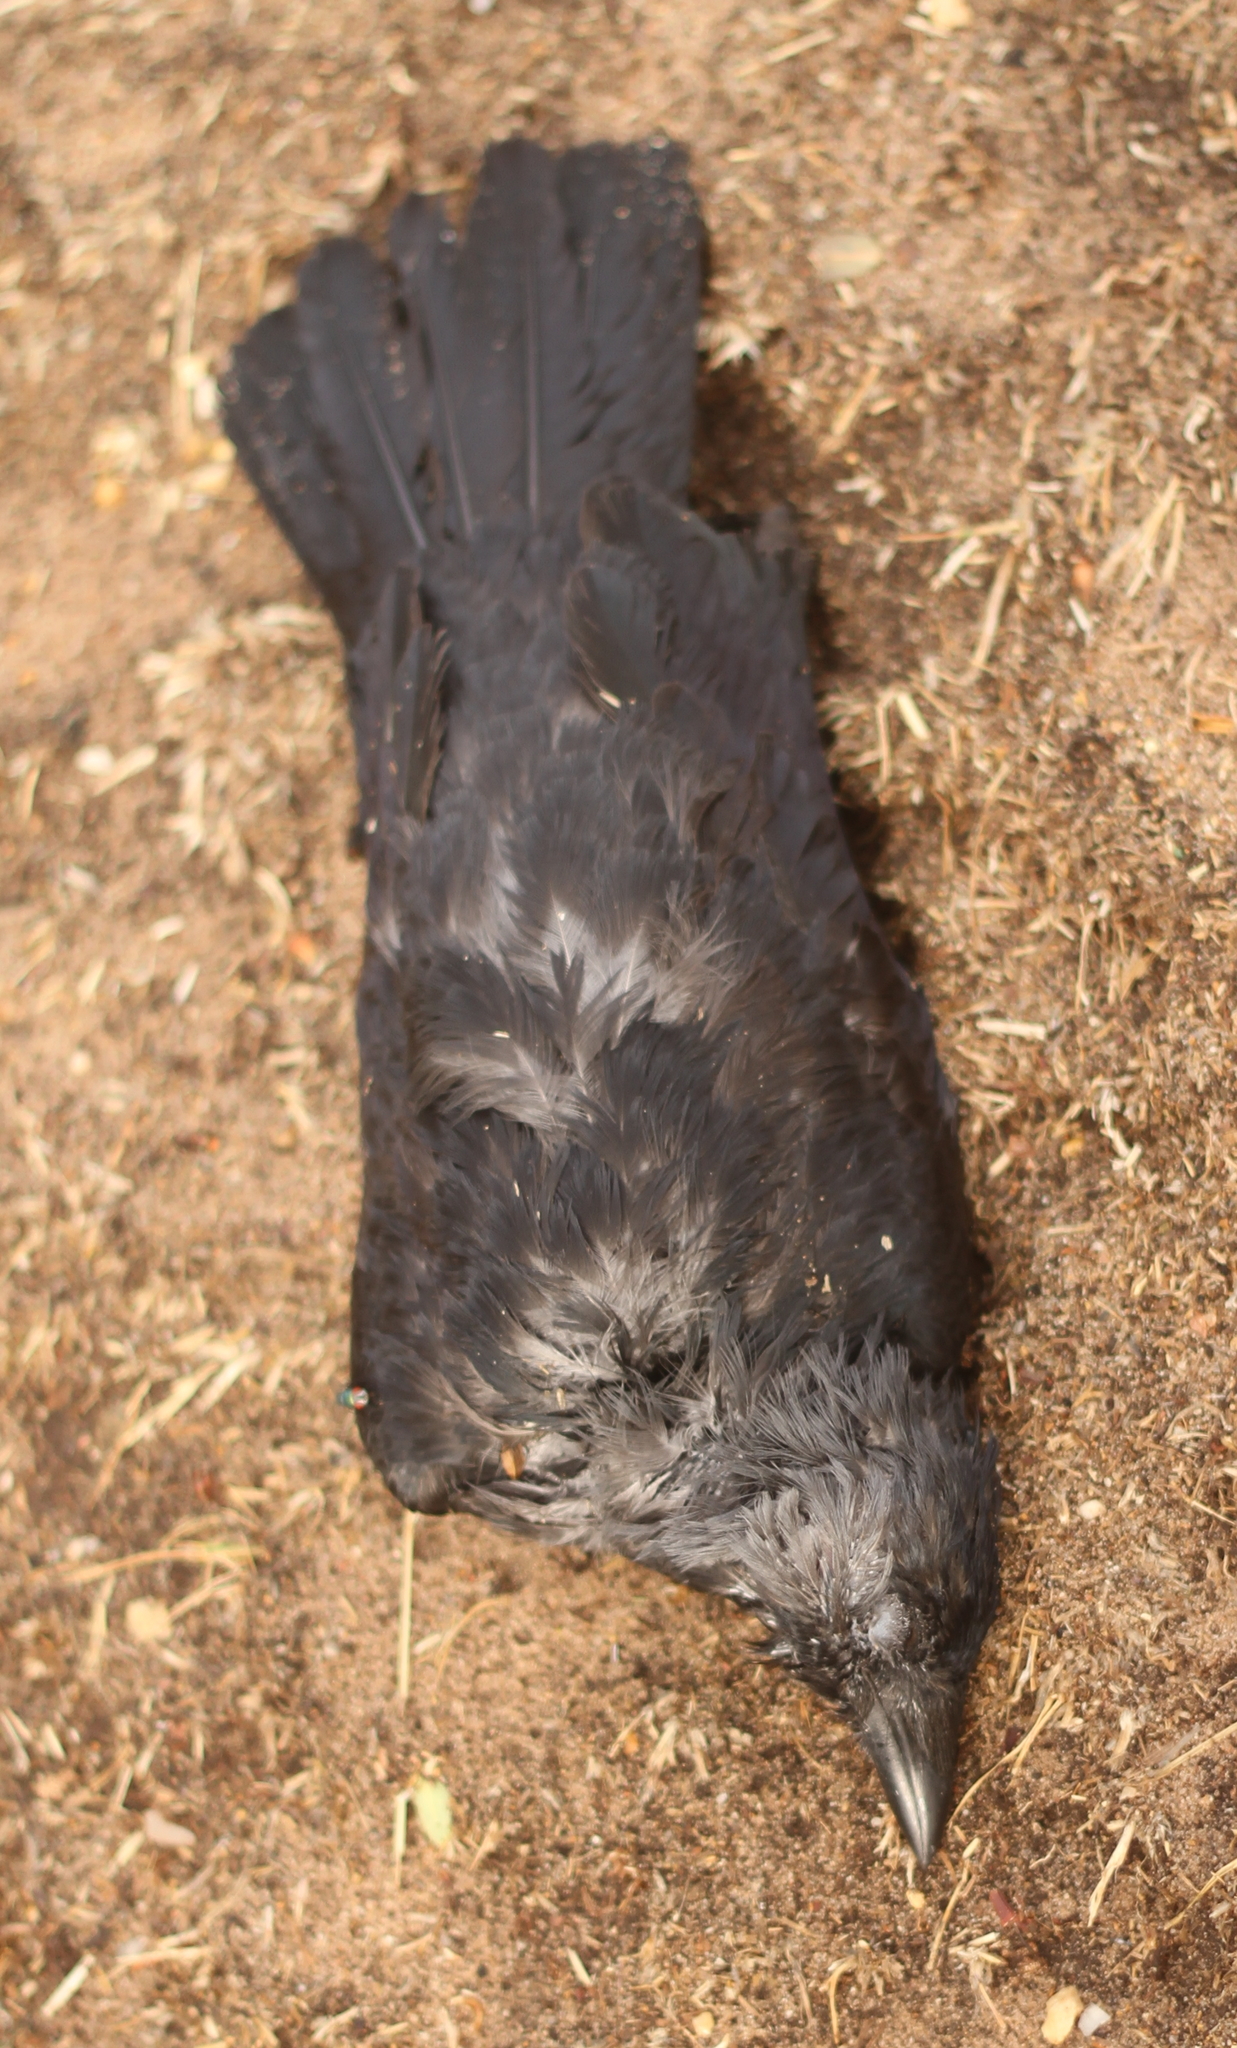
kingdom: Animalia
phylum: Chordata
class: Aves
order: Passeriformes
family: Corvidae
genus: Coloeus
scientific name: Coloeus monedula
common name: Western jackdaw
